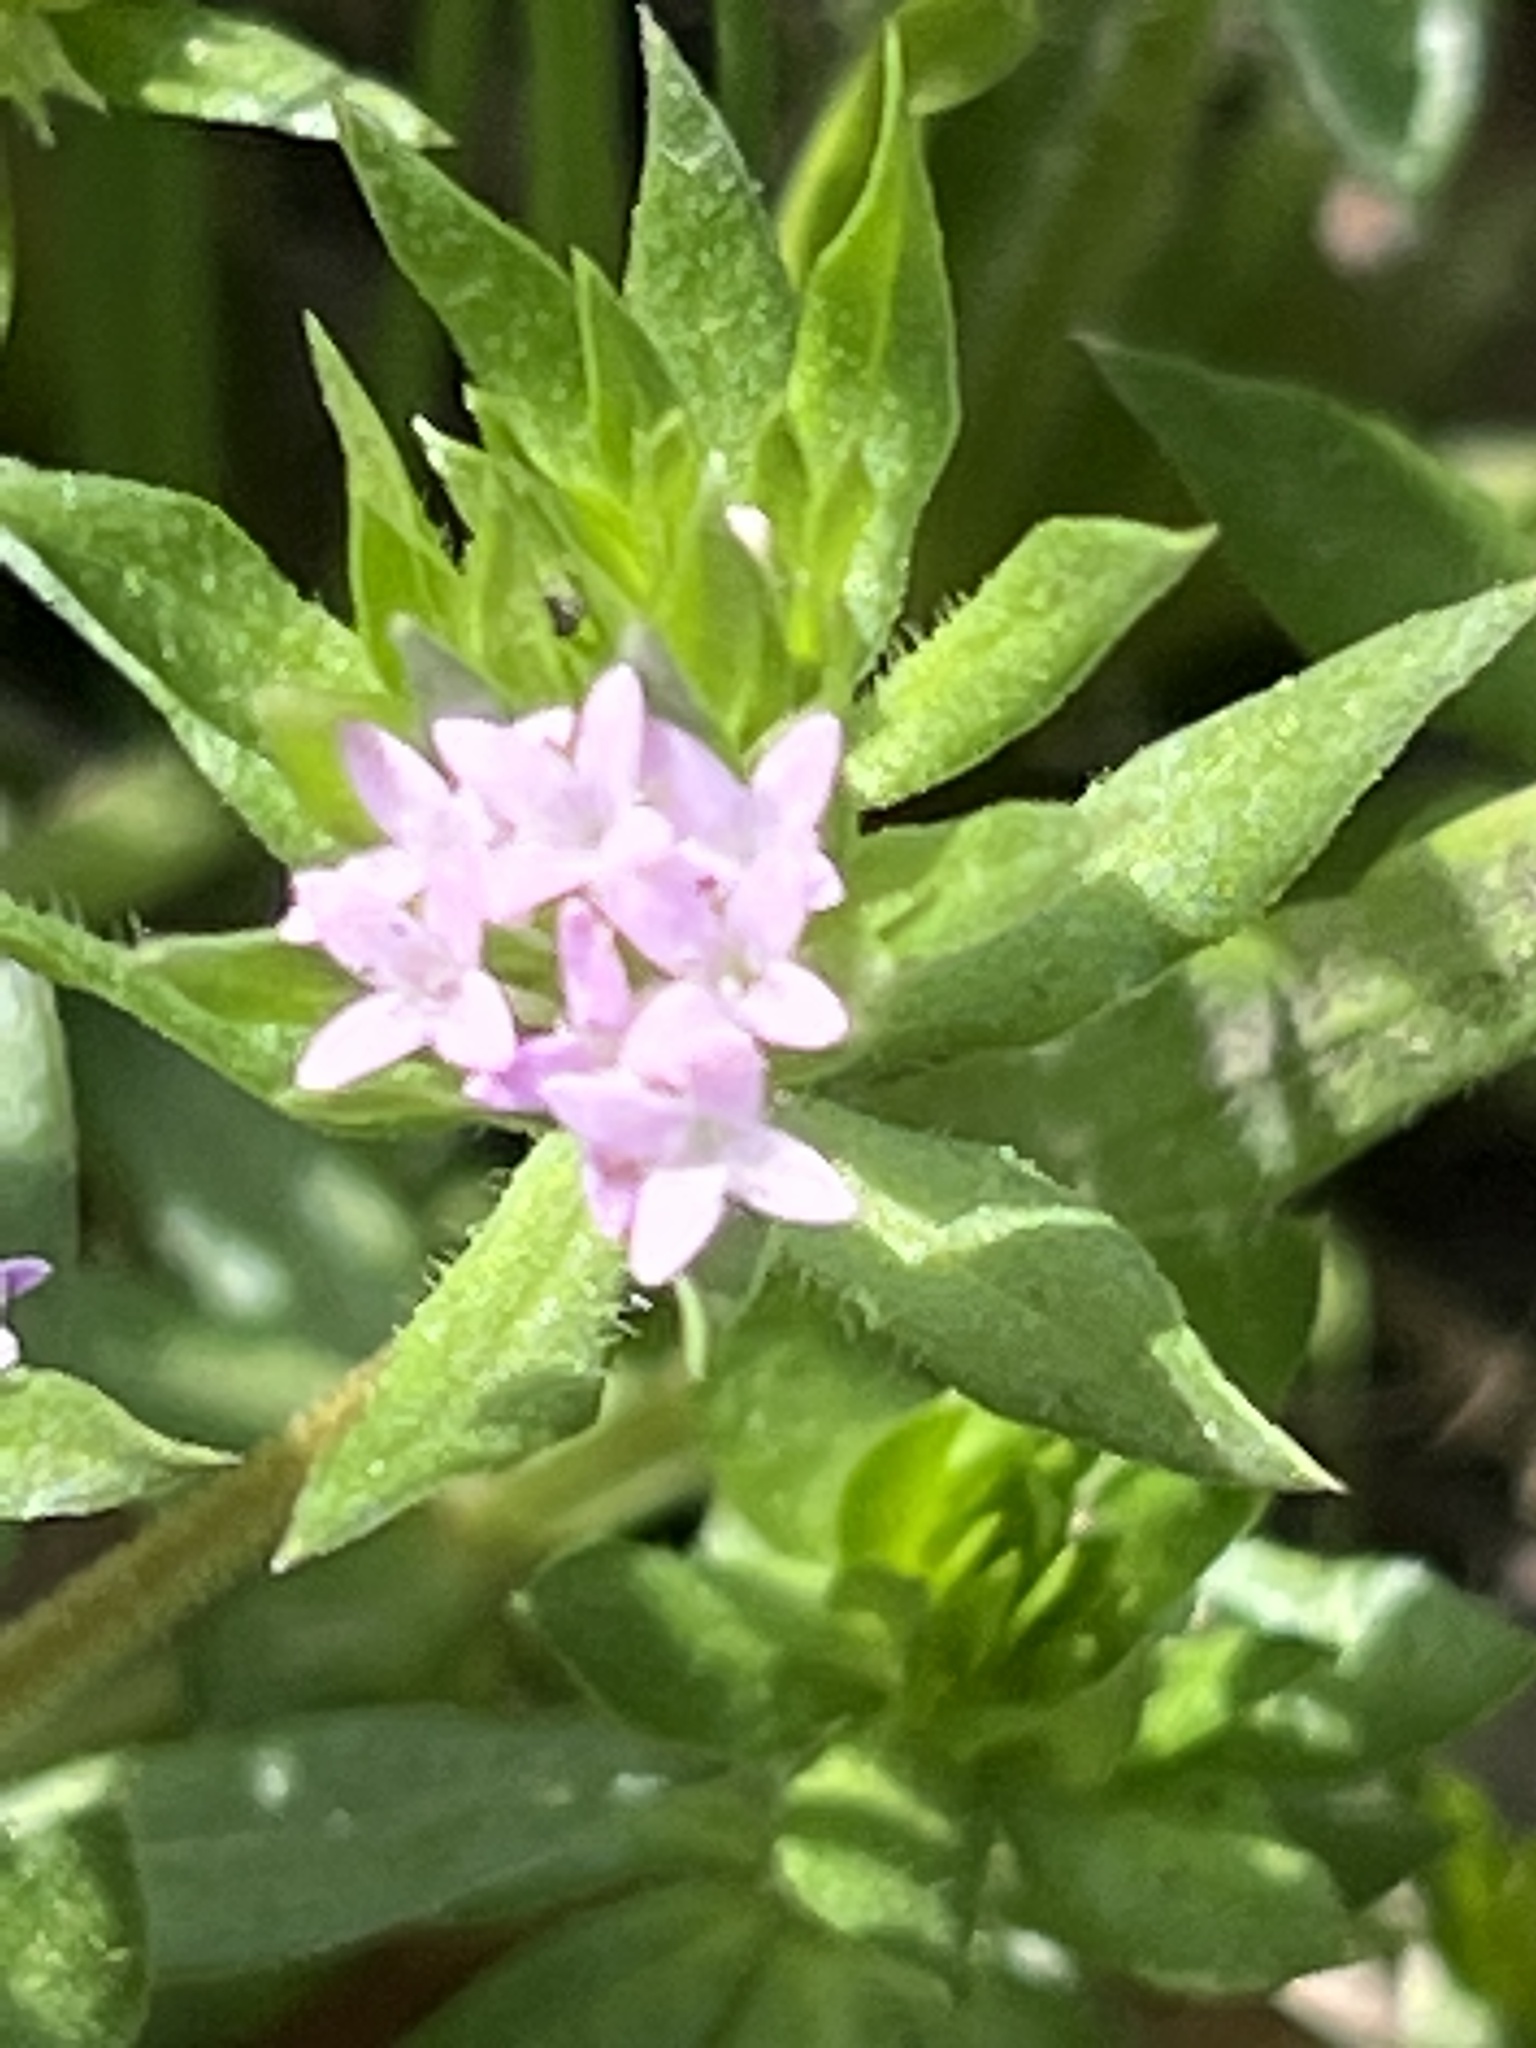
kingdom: Plantae
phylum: Tracheophyta
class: Magnoliopsida
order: Gentianales
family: Rubiaceae
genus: Sherardia
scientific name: Sherardia arvensis
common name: Field madder
